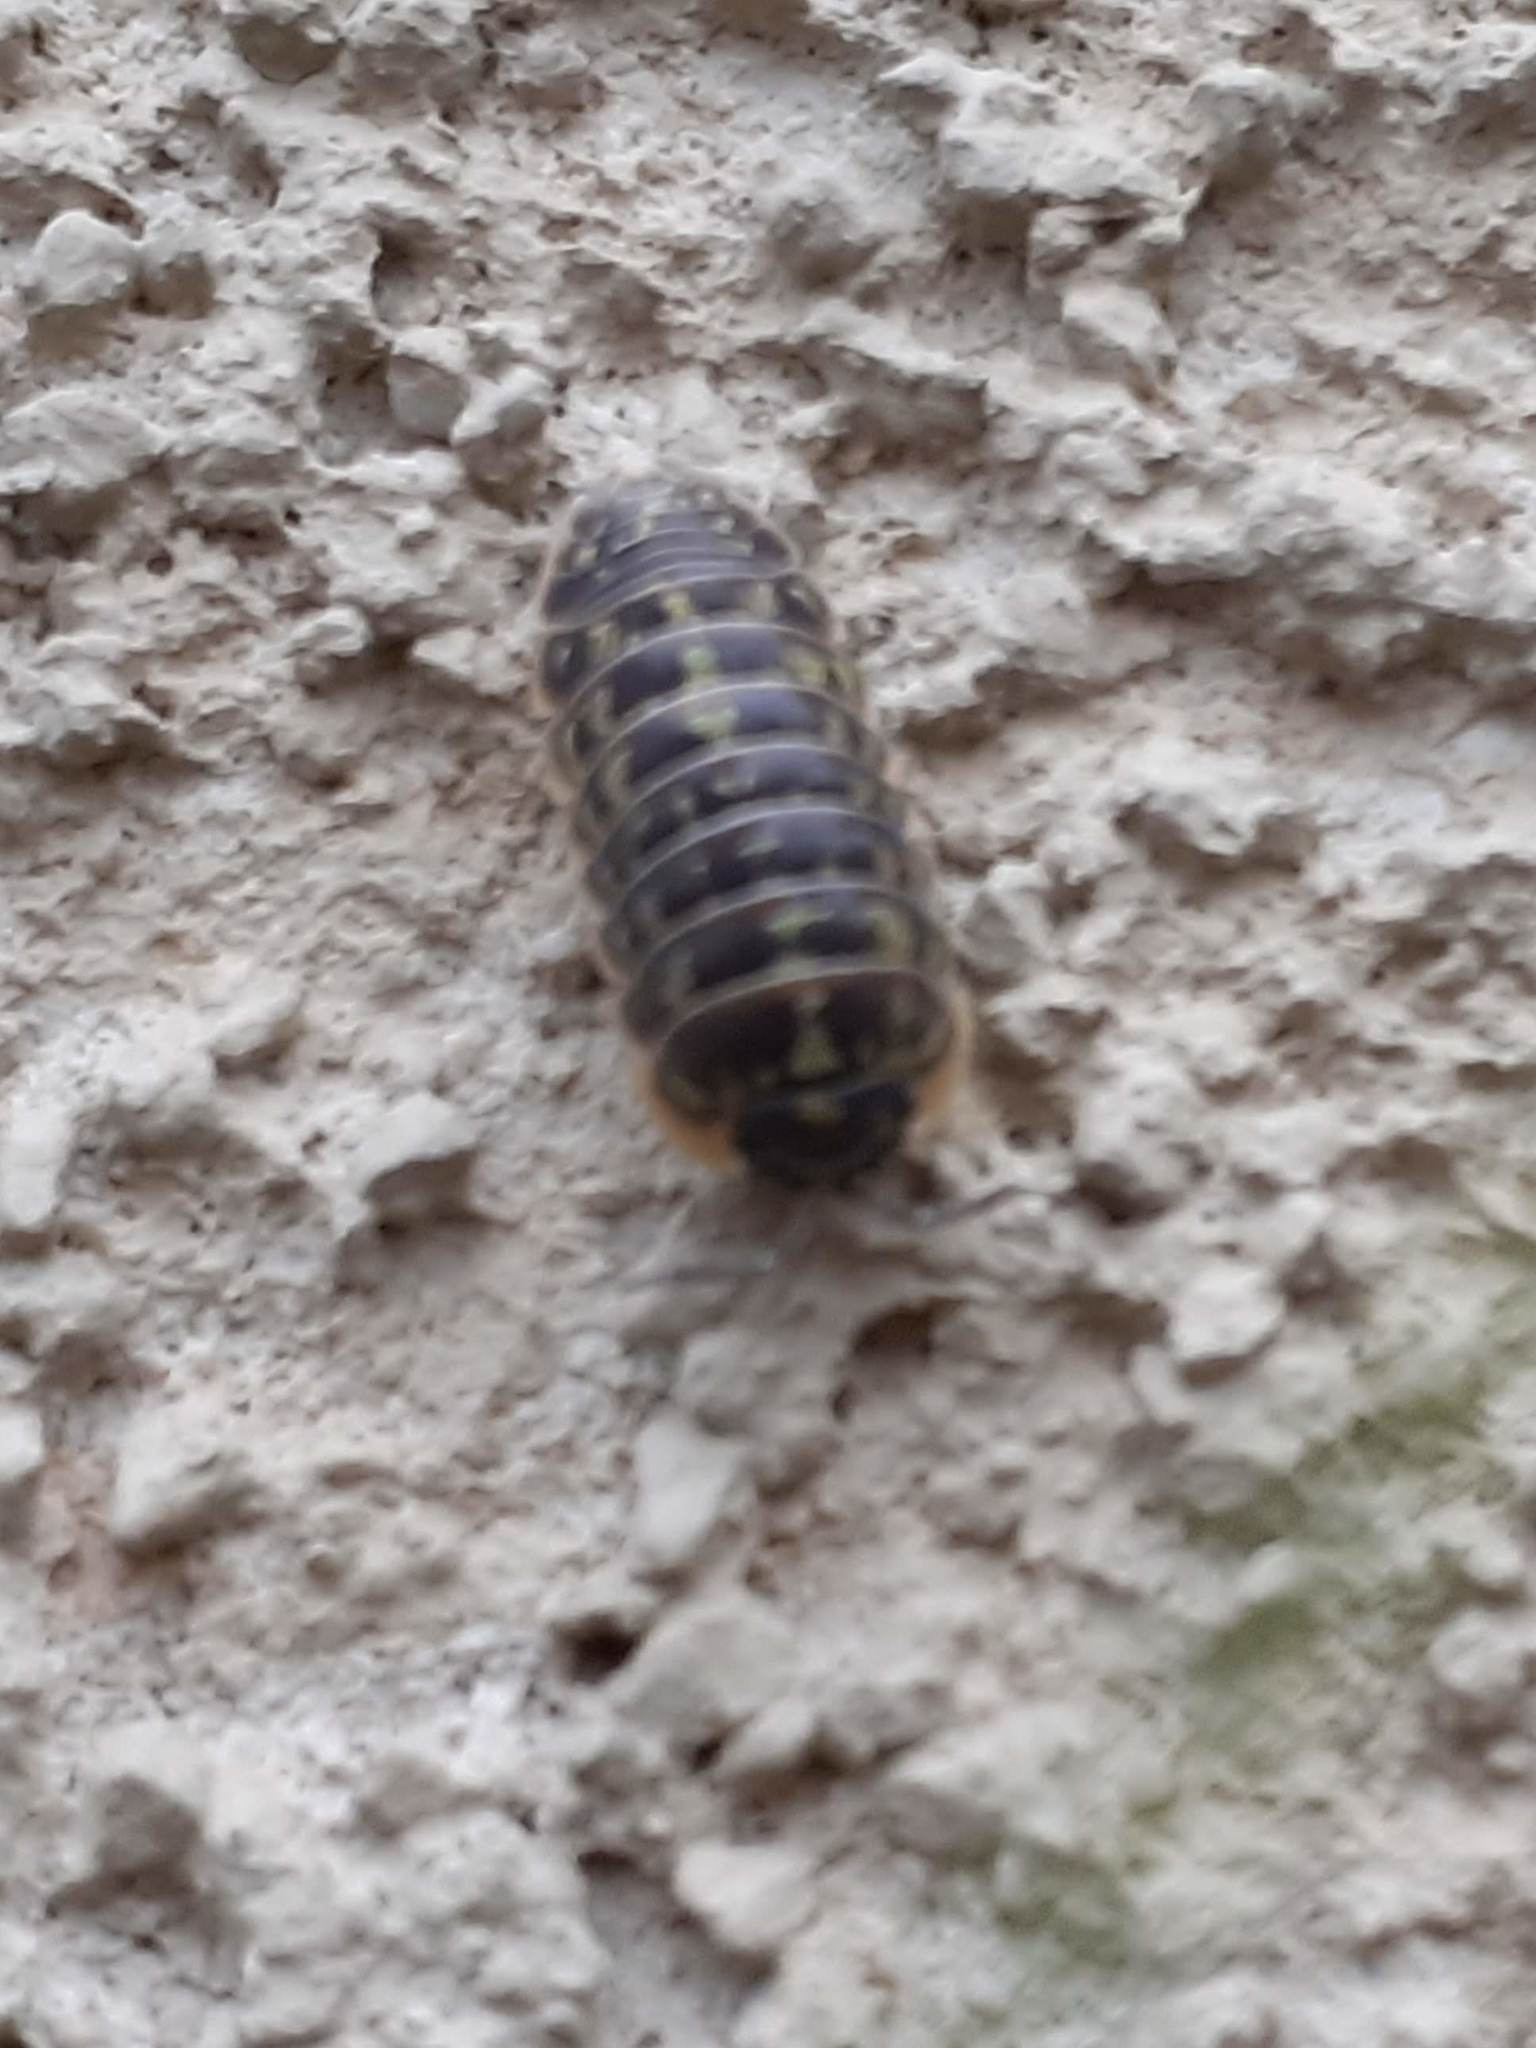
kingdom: Animalia
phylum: Arthropoda
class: Malacostraca
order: Isopoda
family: Armadillidiidae
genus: Armadillidium
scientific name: Armadillidium versicolor
